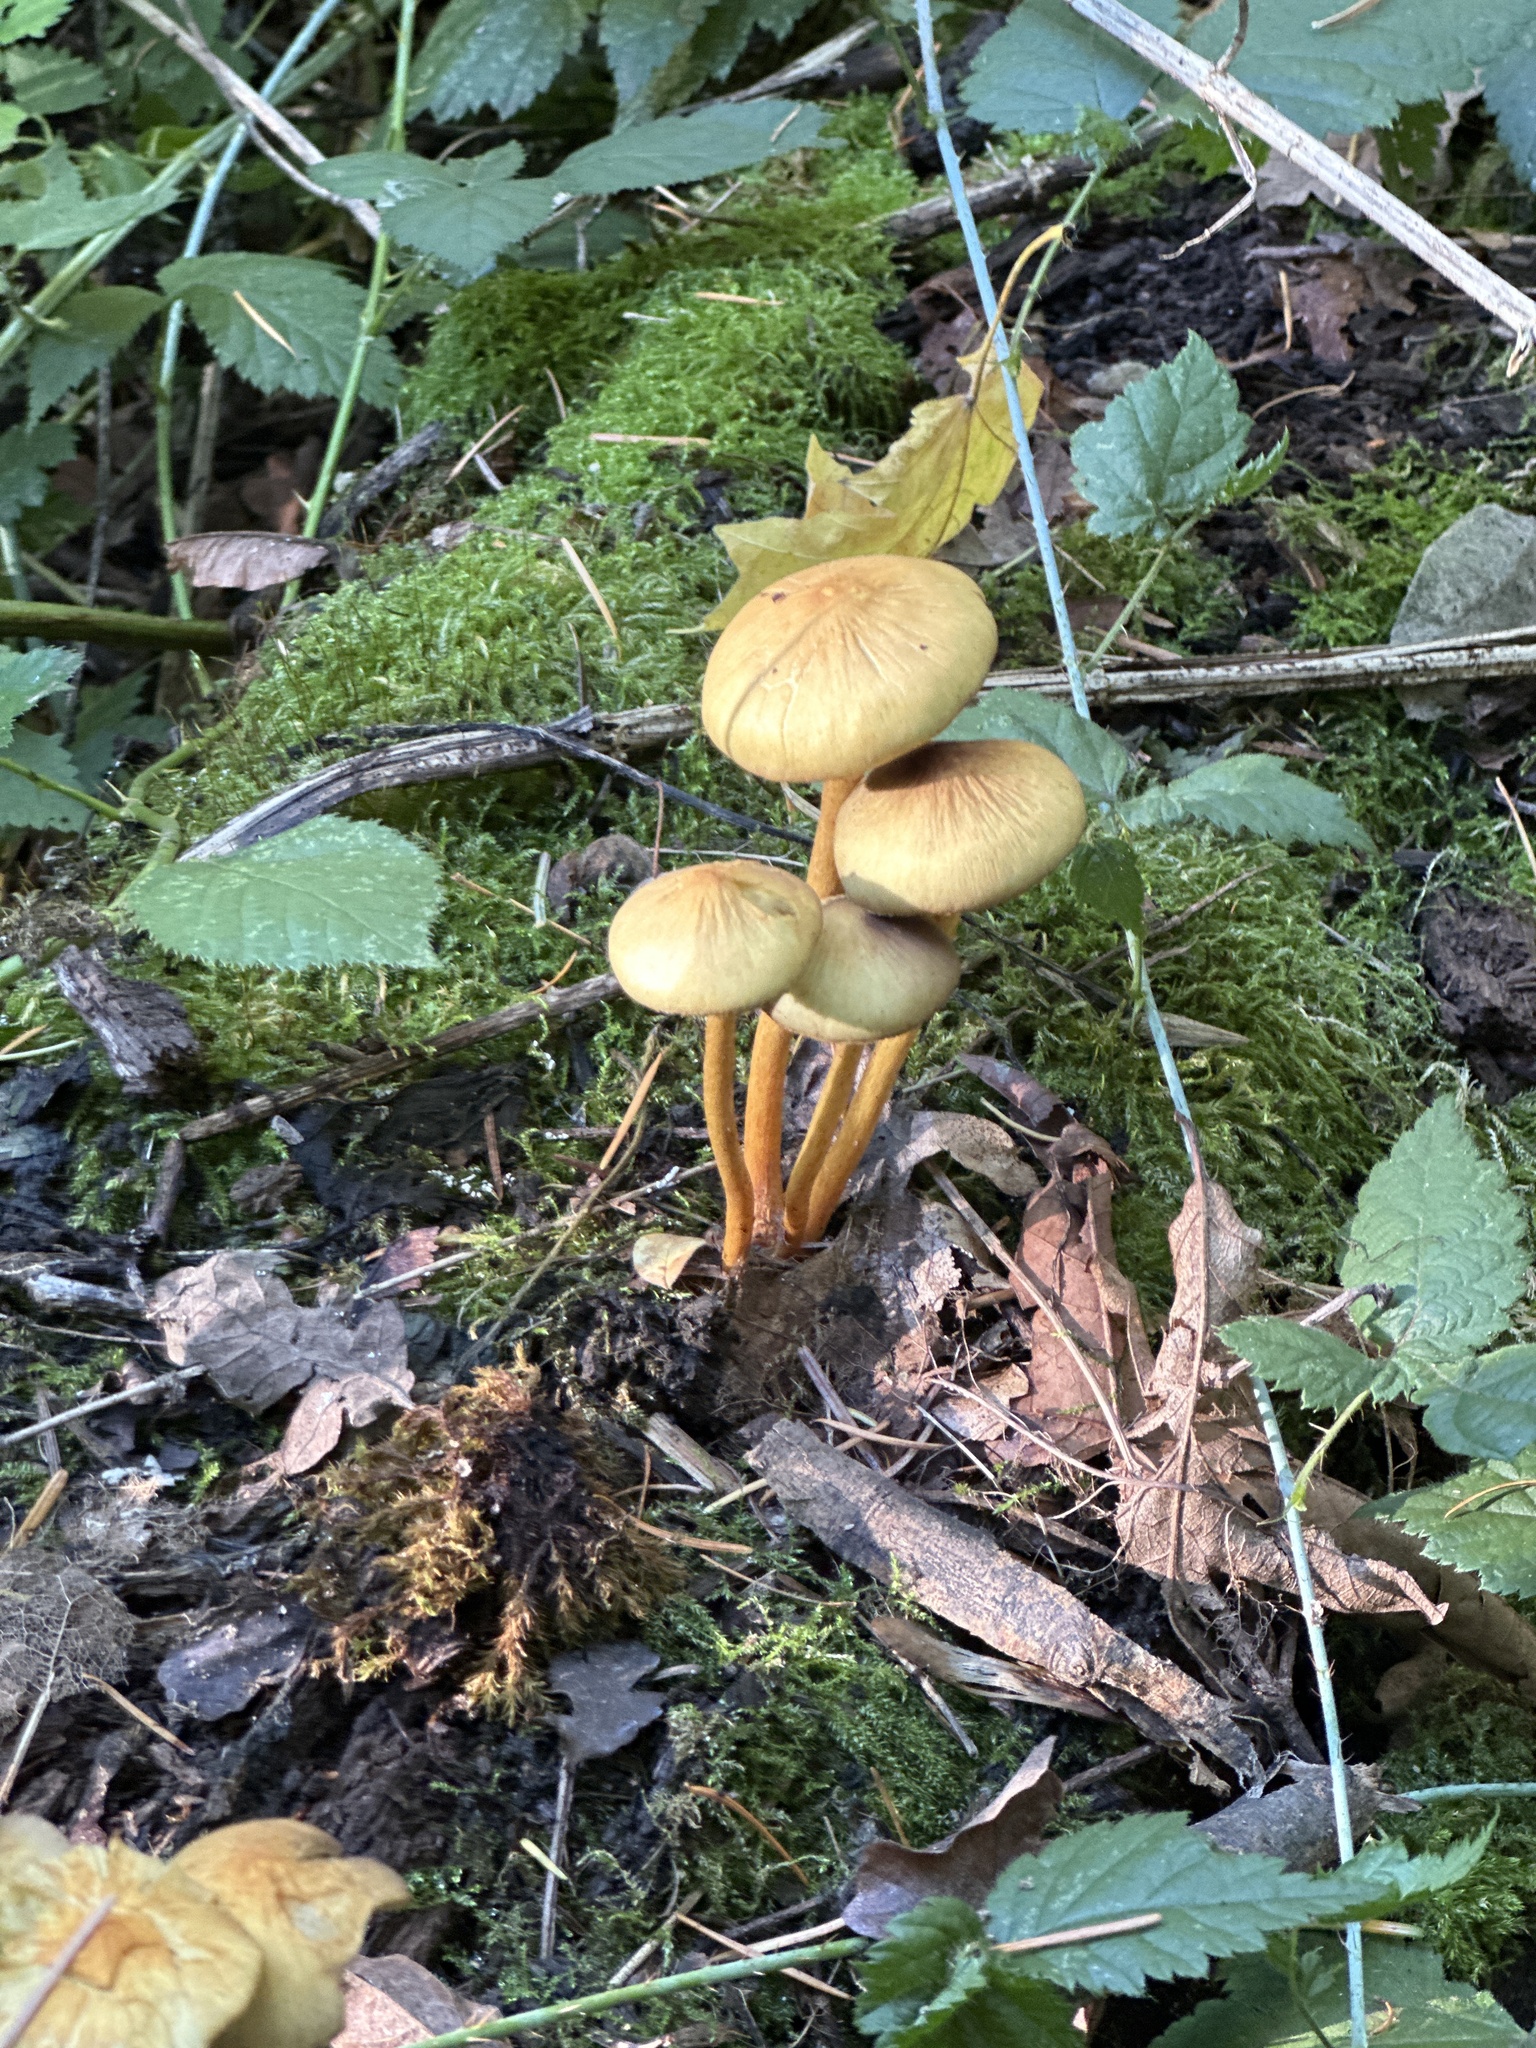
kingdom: Fungi
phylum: Basidiomycota
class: Agaricomycetes
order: Agaricales
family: Strophariaceae
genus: Hypholoma
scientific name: Hypholoma fasciculare
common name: Sulphur tuft
